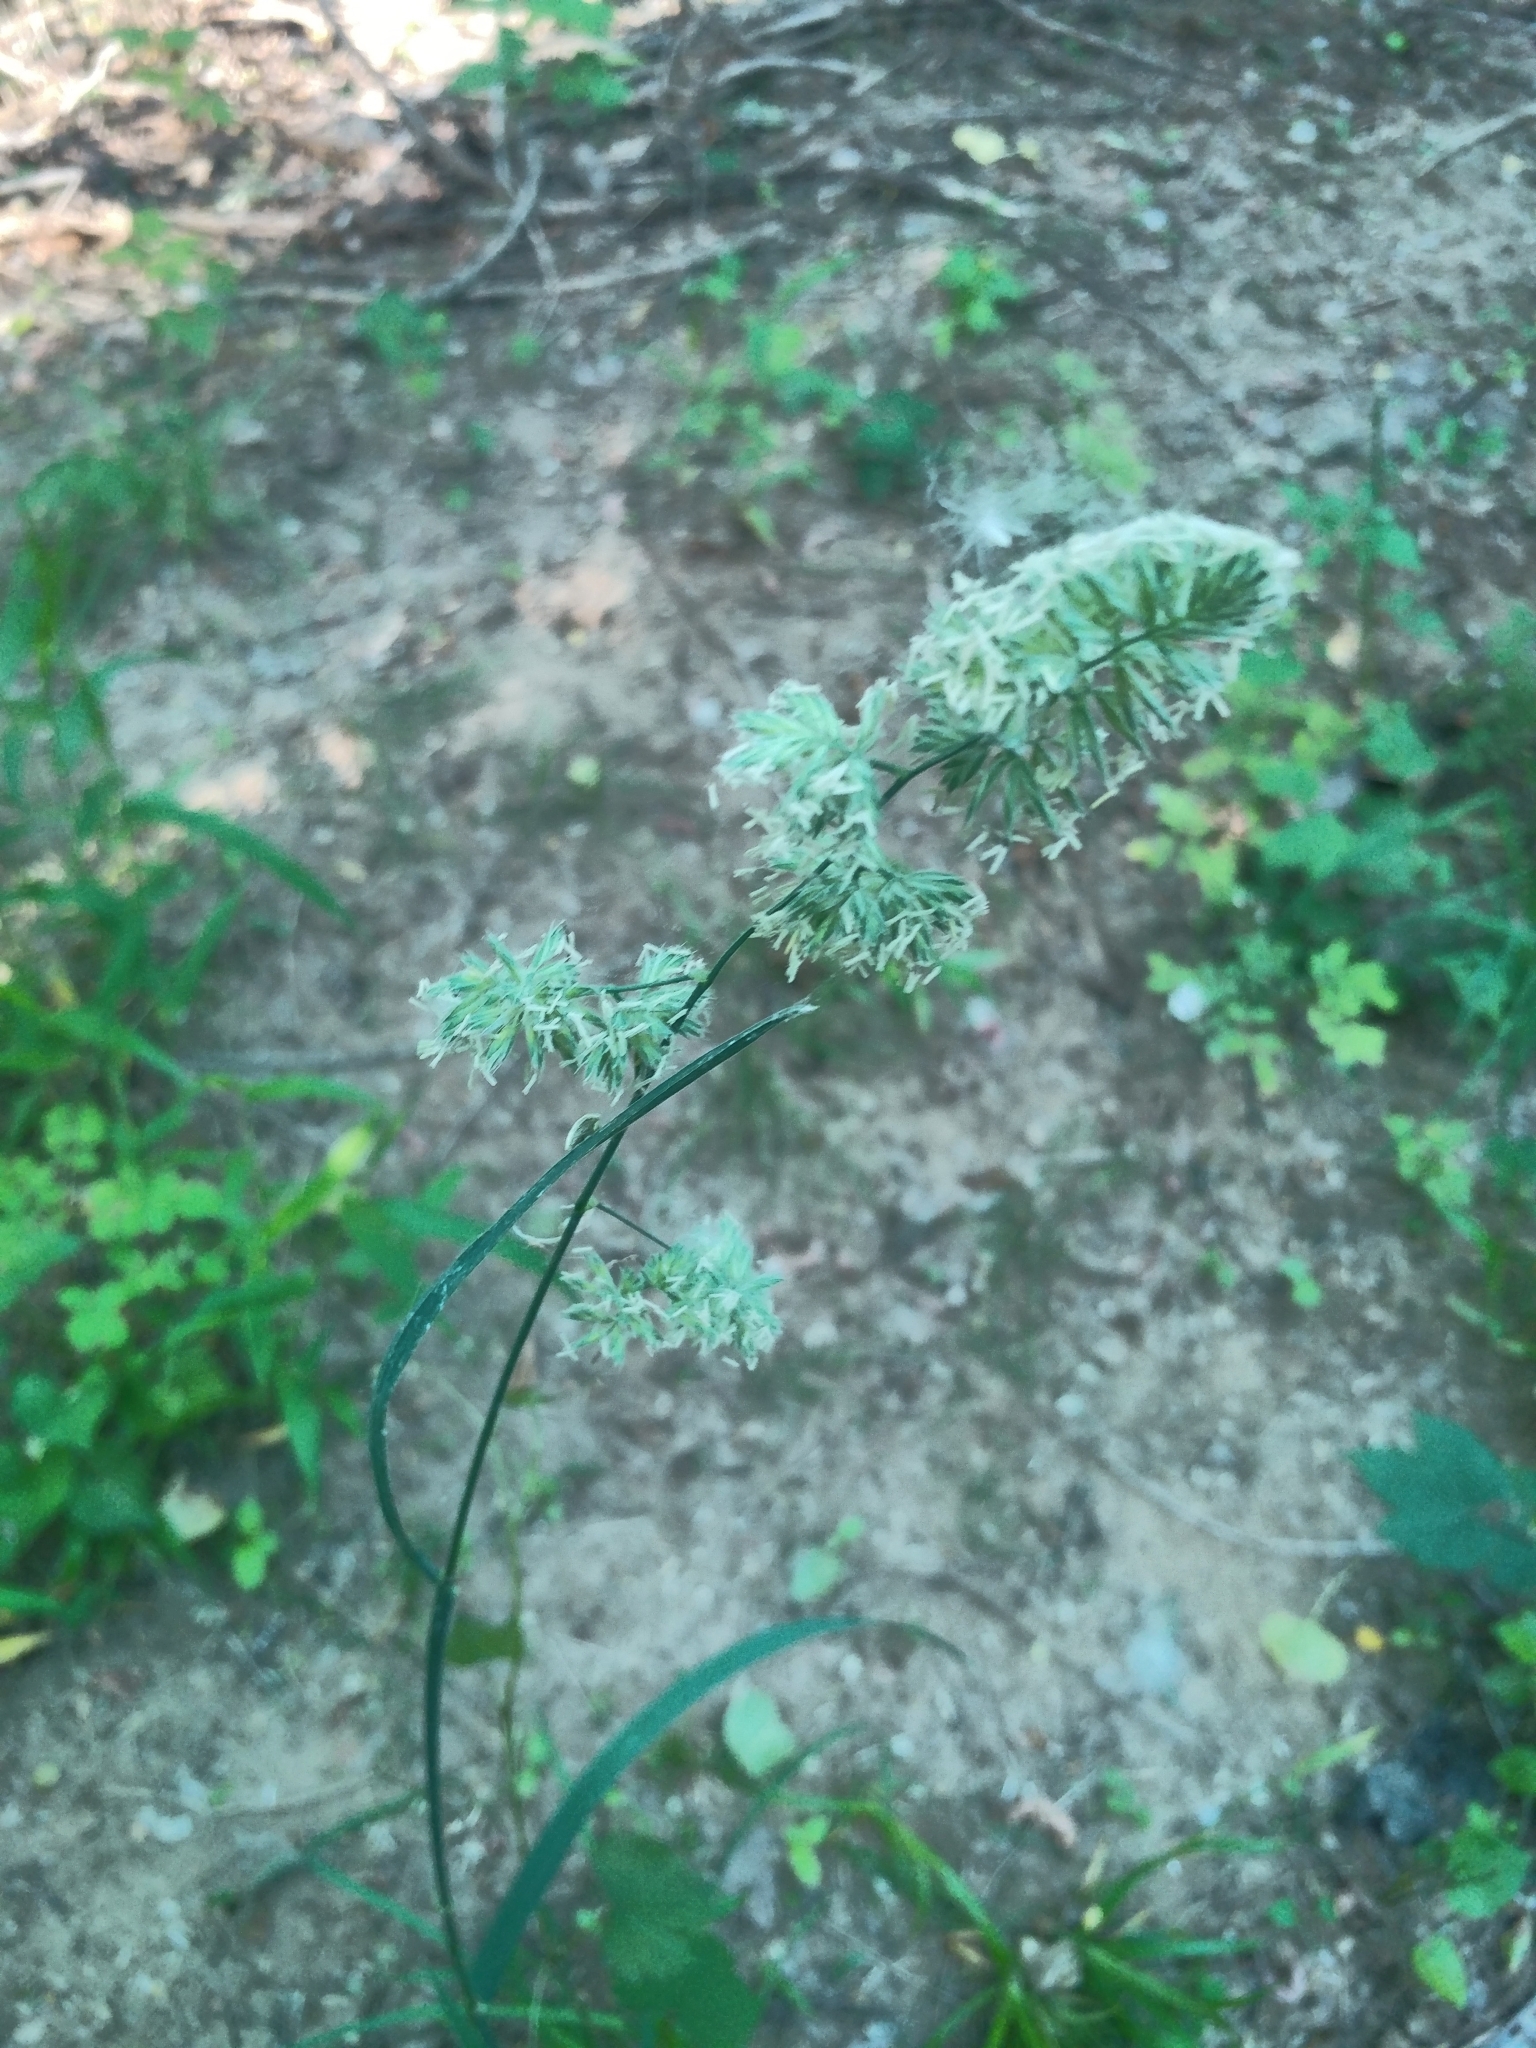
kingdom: Plantae
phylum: Tracheophyta
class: Liliopsida
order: Poales
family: Poaceae
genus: Dactylis
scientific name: Dactylis glomerata
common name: Orchardgrass
